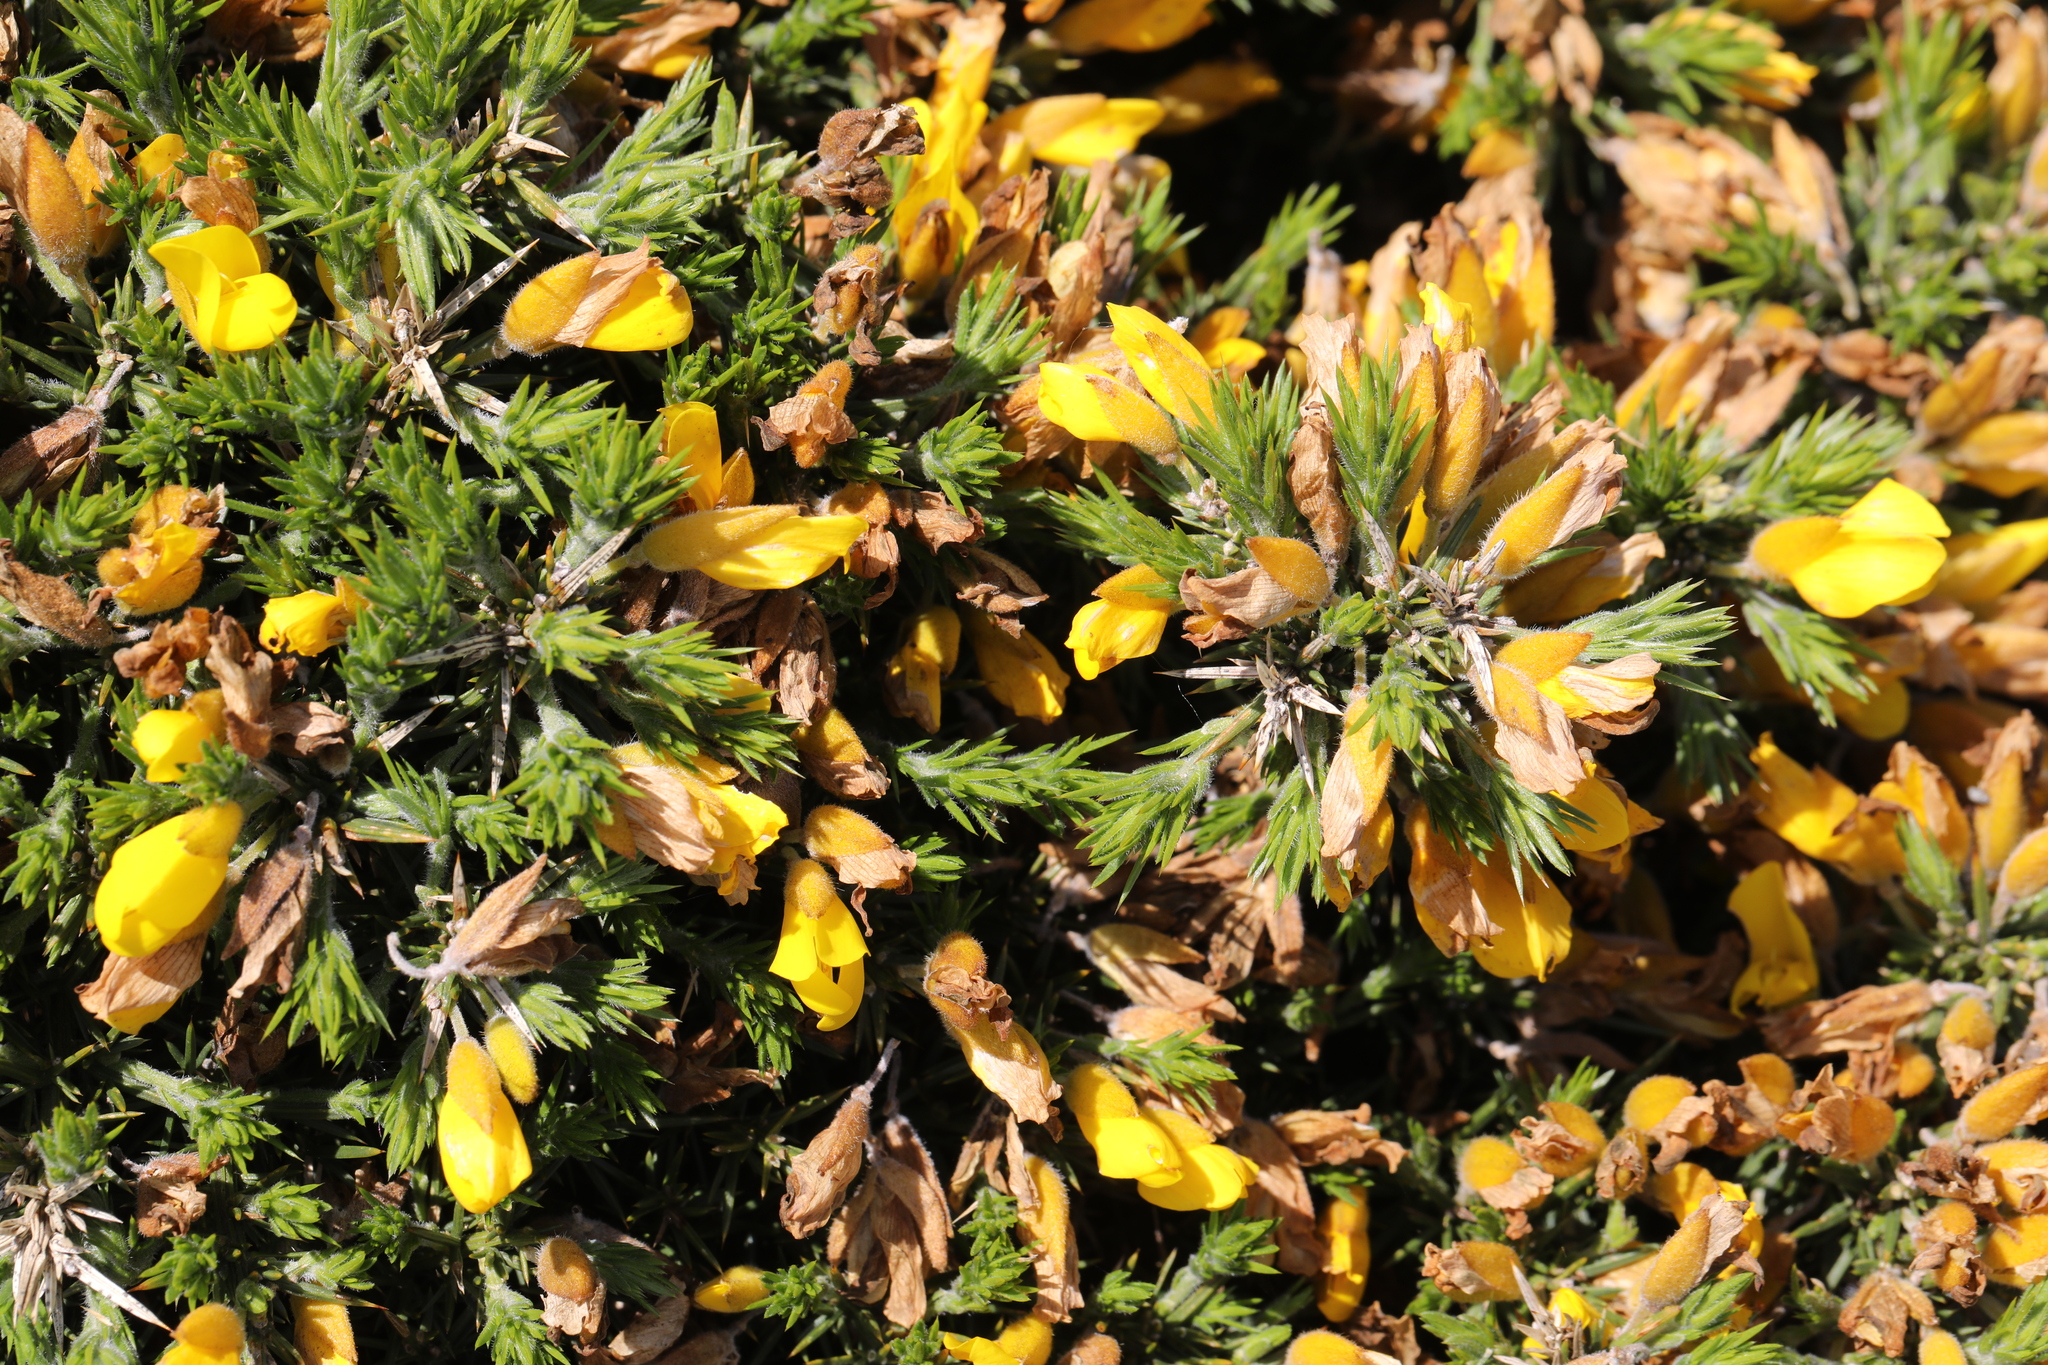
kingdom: Plantae
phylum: Tracheophyta
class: Magnoliopsida
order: Fabales
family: Fabaceae
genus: Ulex
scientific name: Ulex europaeus
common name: Common gorse
